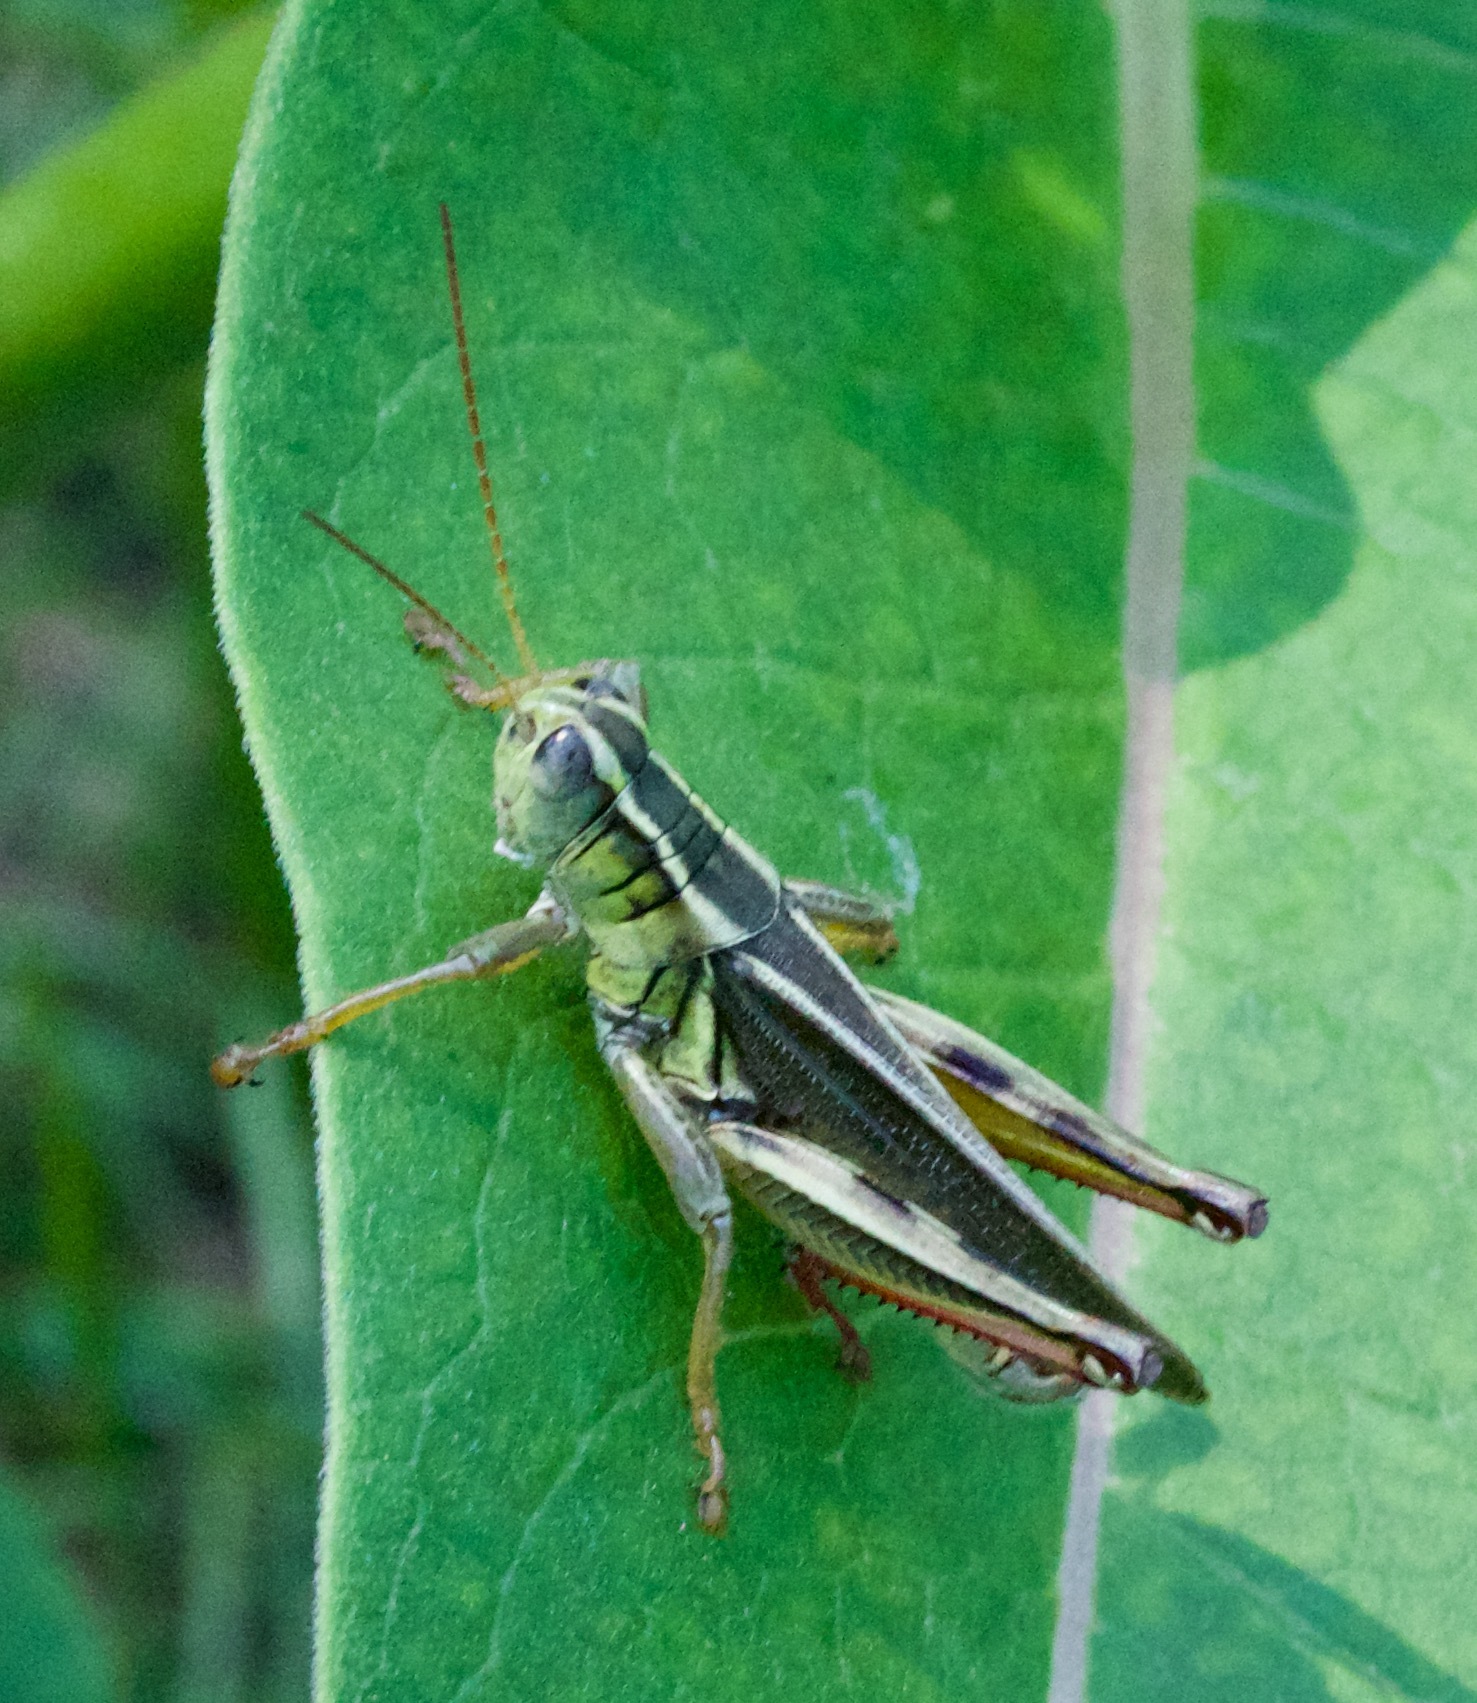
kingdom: Animalia
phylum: Arthropoda
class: Insecta
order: Orthoptera
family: Acrididae
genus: Melanoplus
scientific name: Melanoplus bivittatus
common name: Two-striped grasshopper
